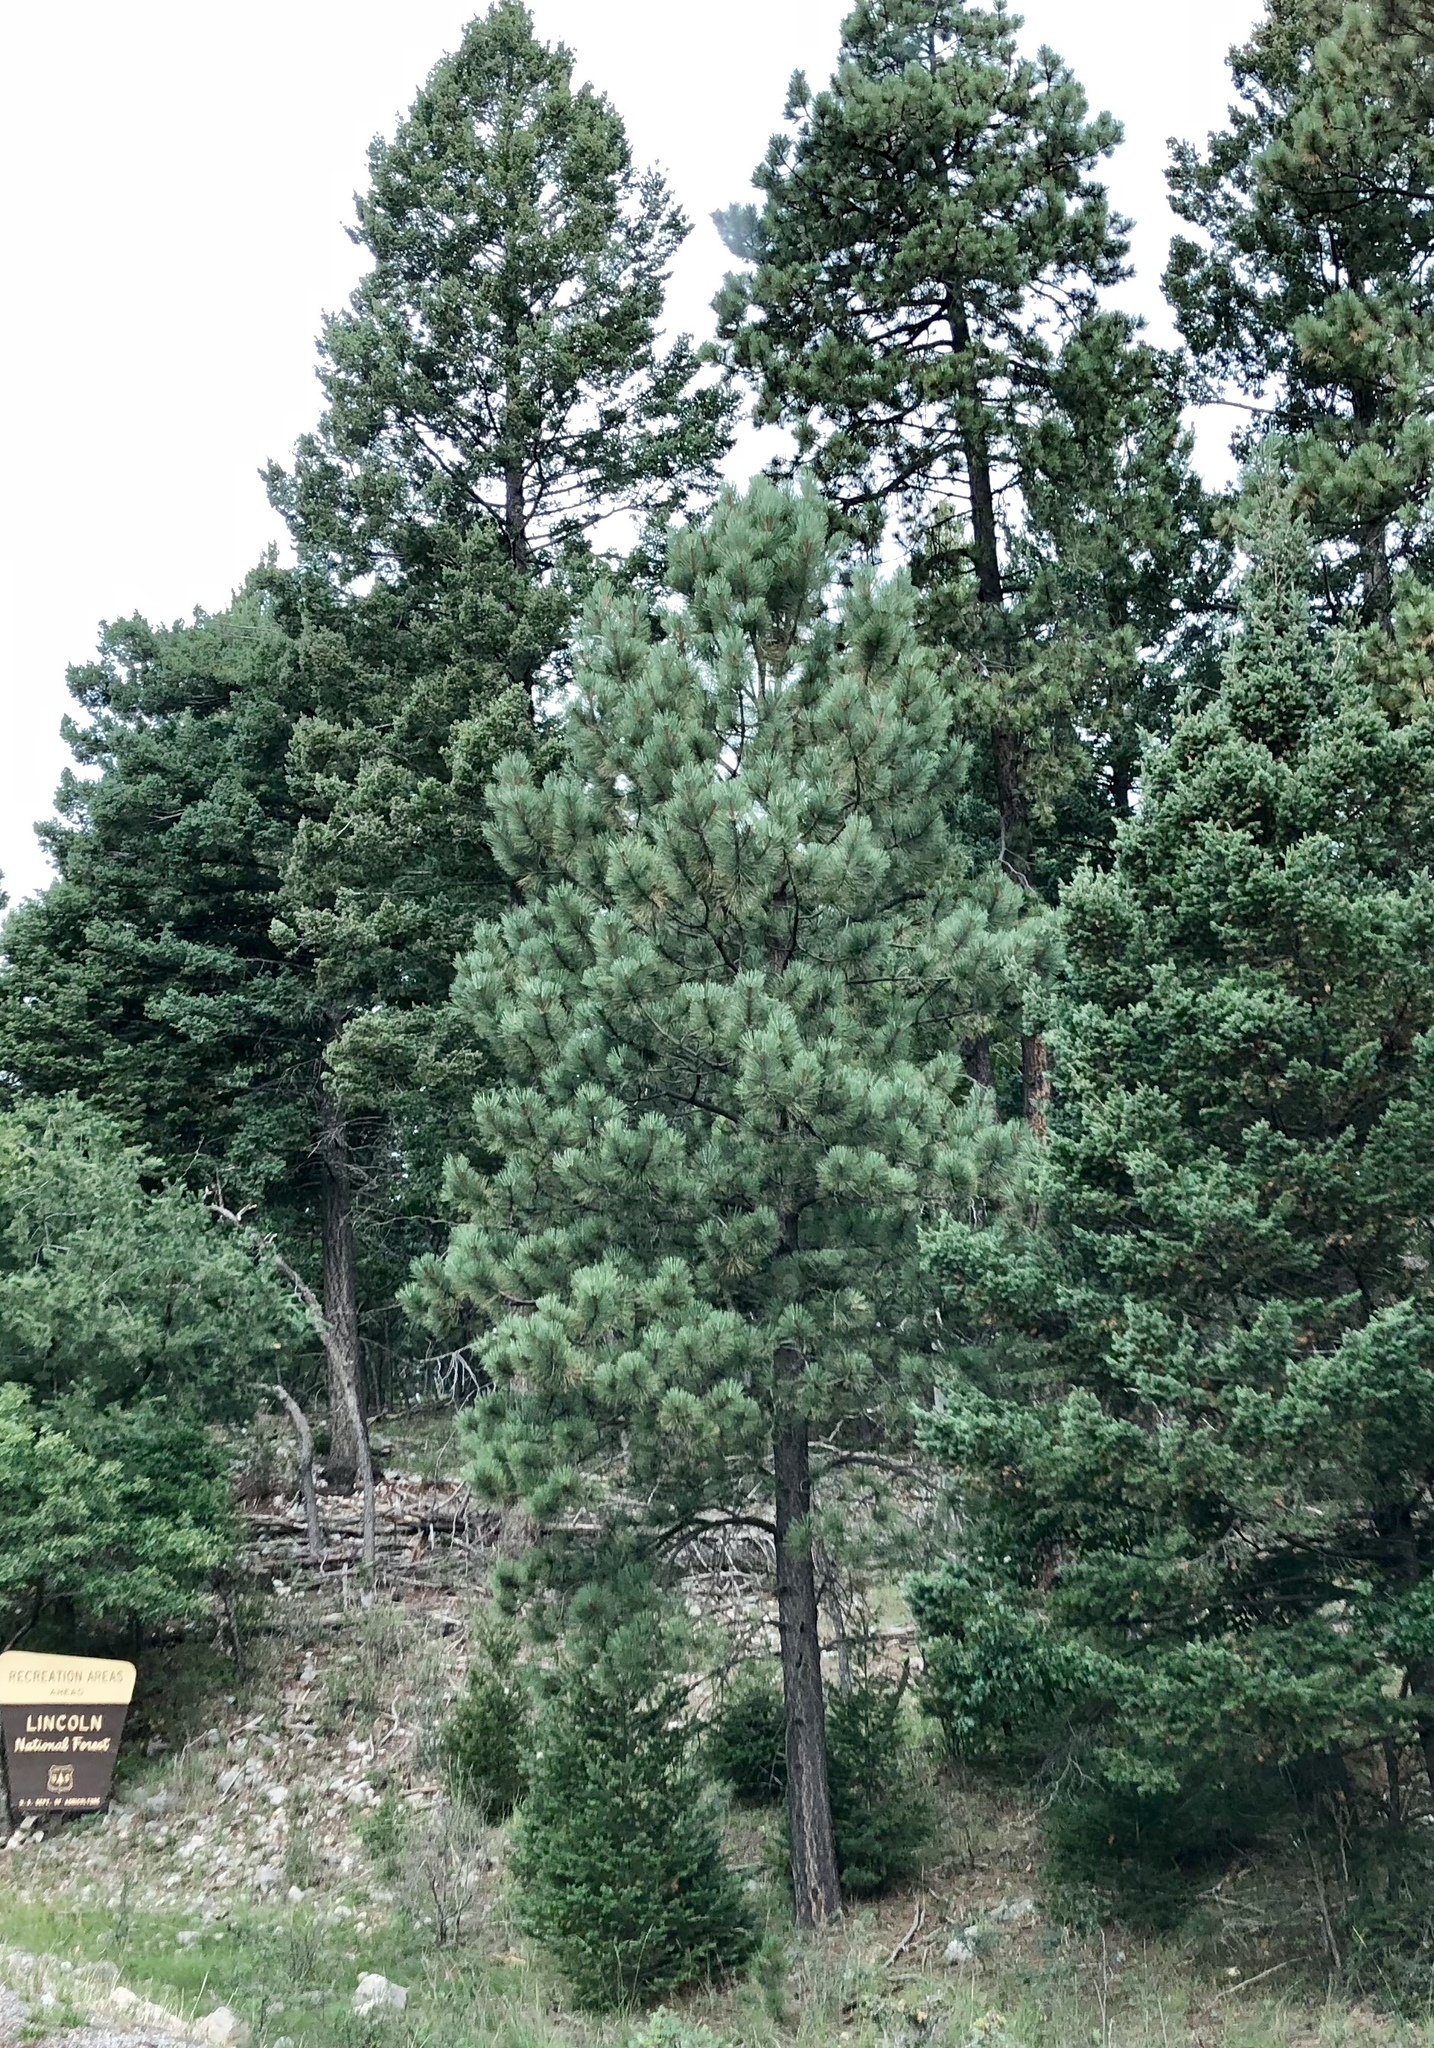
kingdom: Plantae
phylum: Tracheophyta
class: Pinopsida
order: Pinales
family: Pinaceae
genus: Pinus
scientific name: Pinus ponderosa
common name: Western yellow-pine
